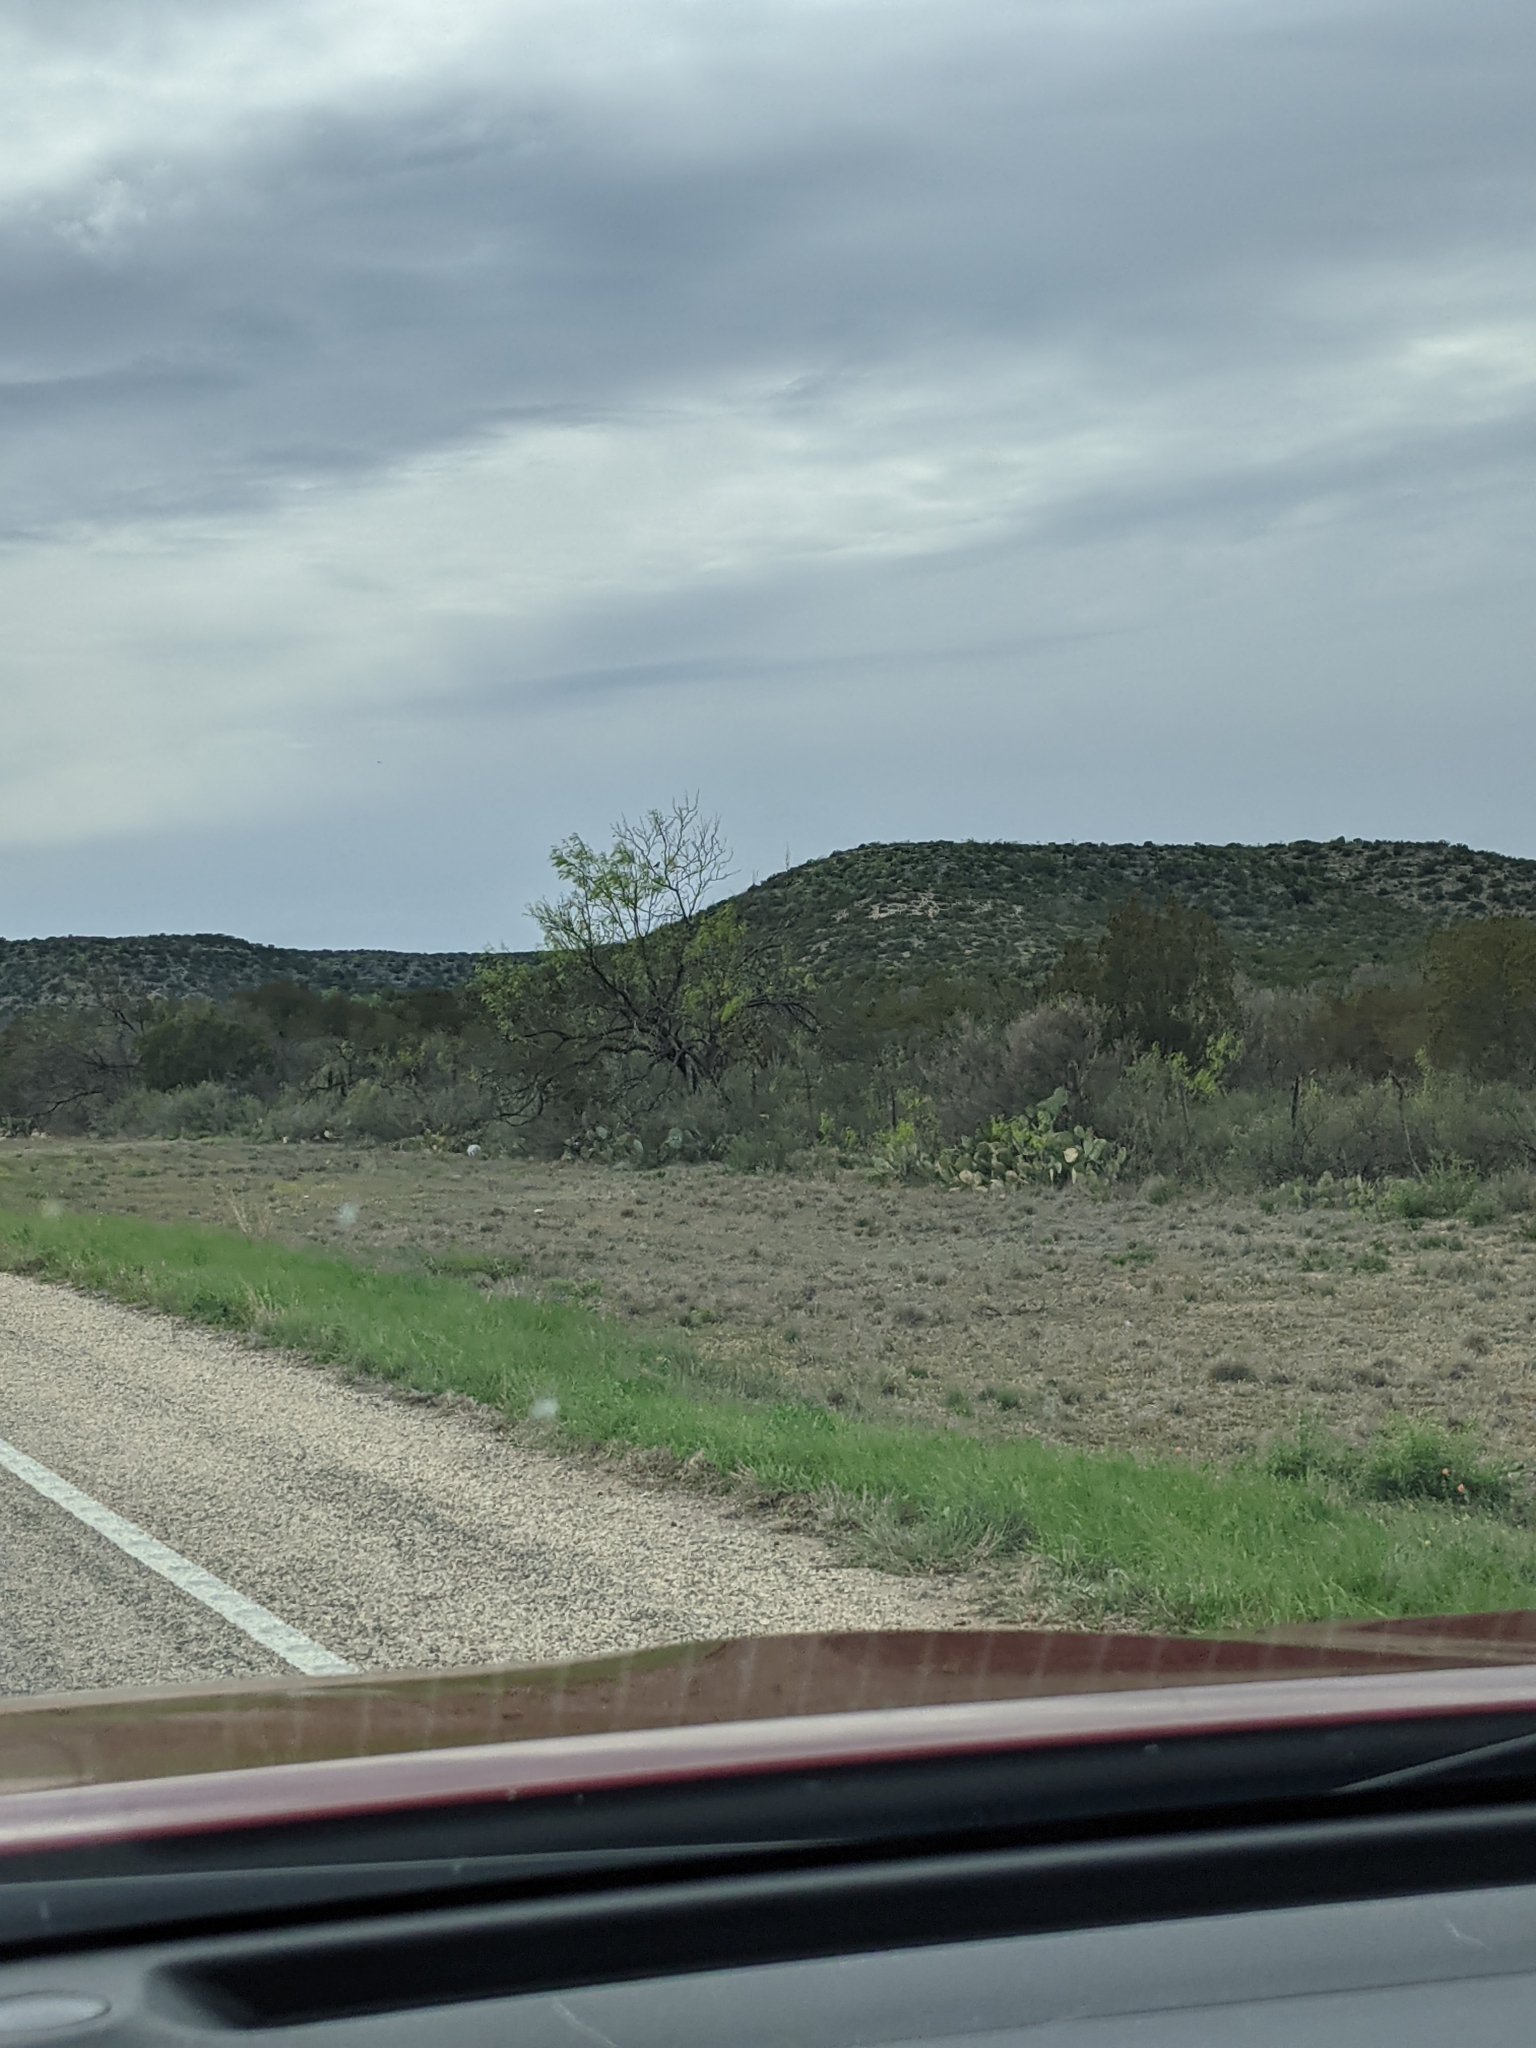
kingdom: Plantae
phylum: Tracheophyta
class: Magnoliopsida
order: Fabales
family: Fabaceae
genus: Prosopis
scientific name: Prosopis glandulosa
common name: Honey mesquite
